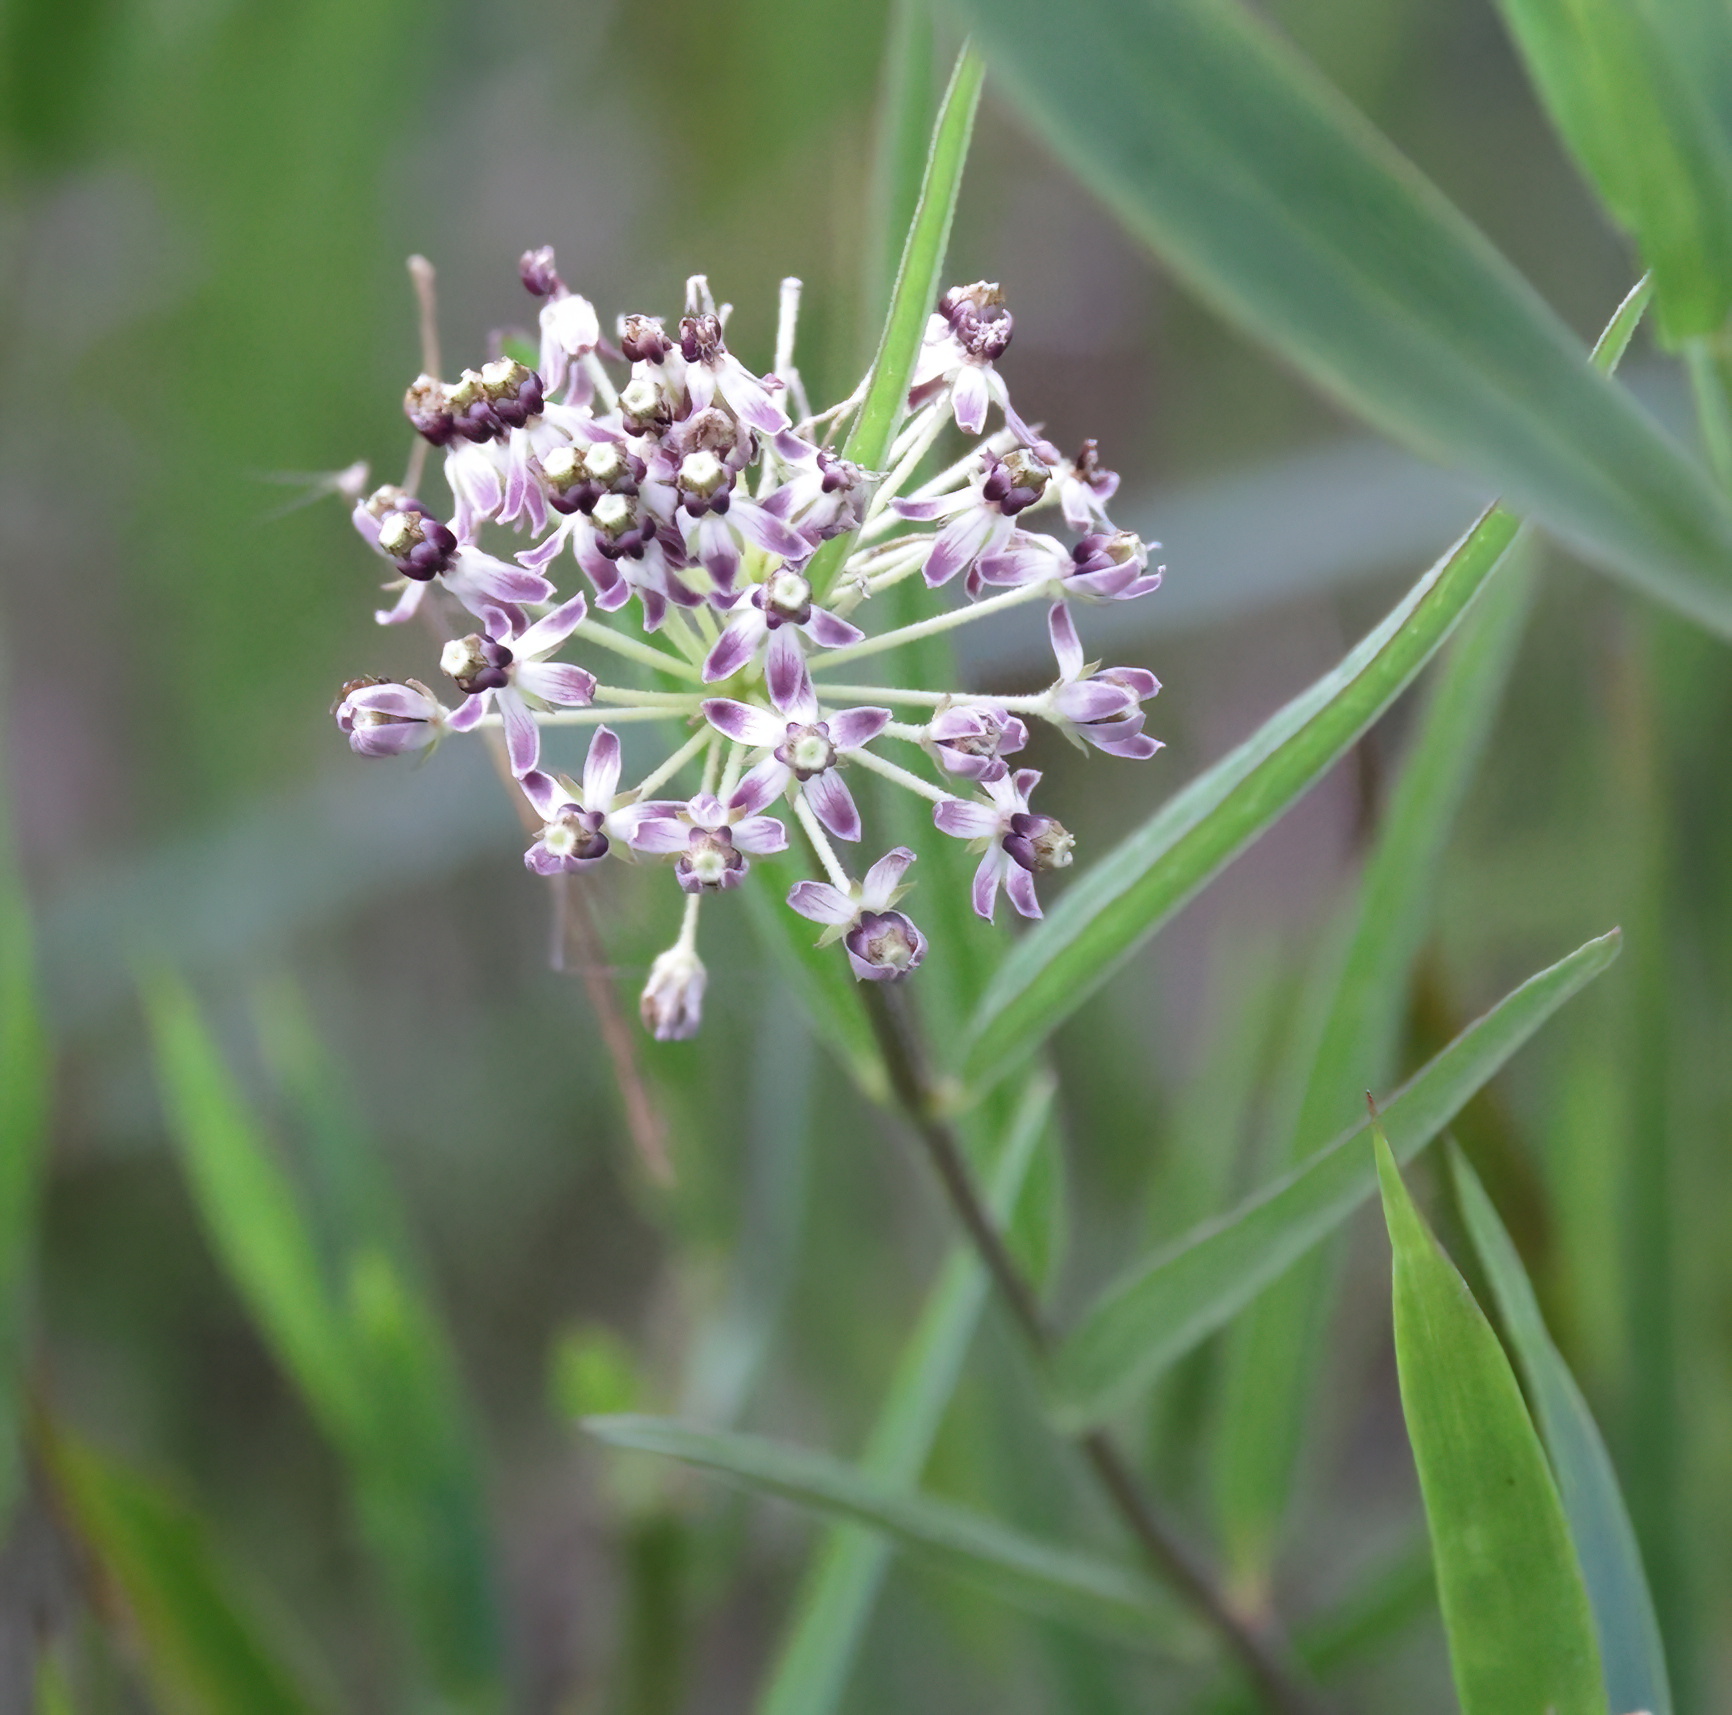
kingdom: Plantae
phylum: Tracheophyta
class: Magnoliopsida
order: Gentianales
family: Apocynaceae
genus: Asclepias
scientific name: Asclepias longifolia
